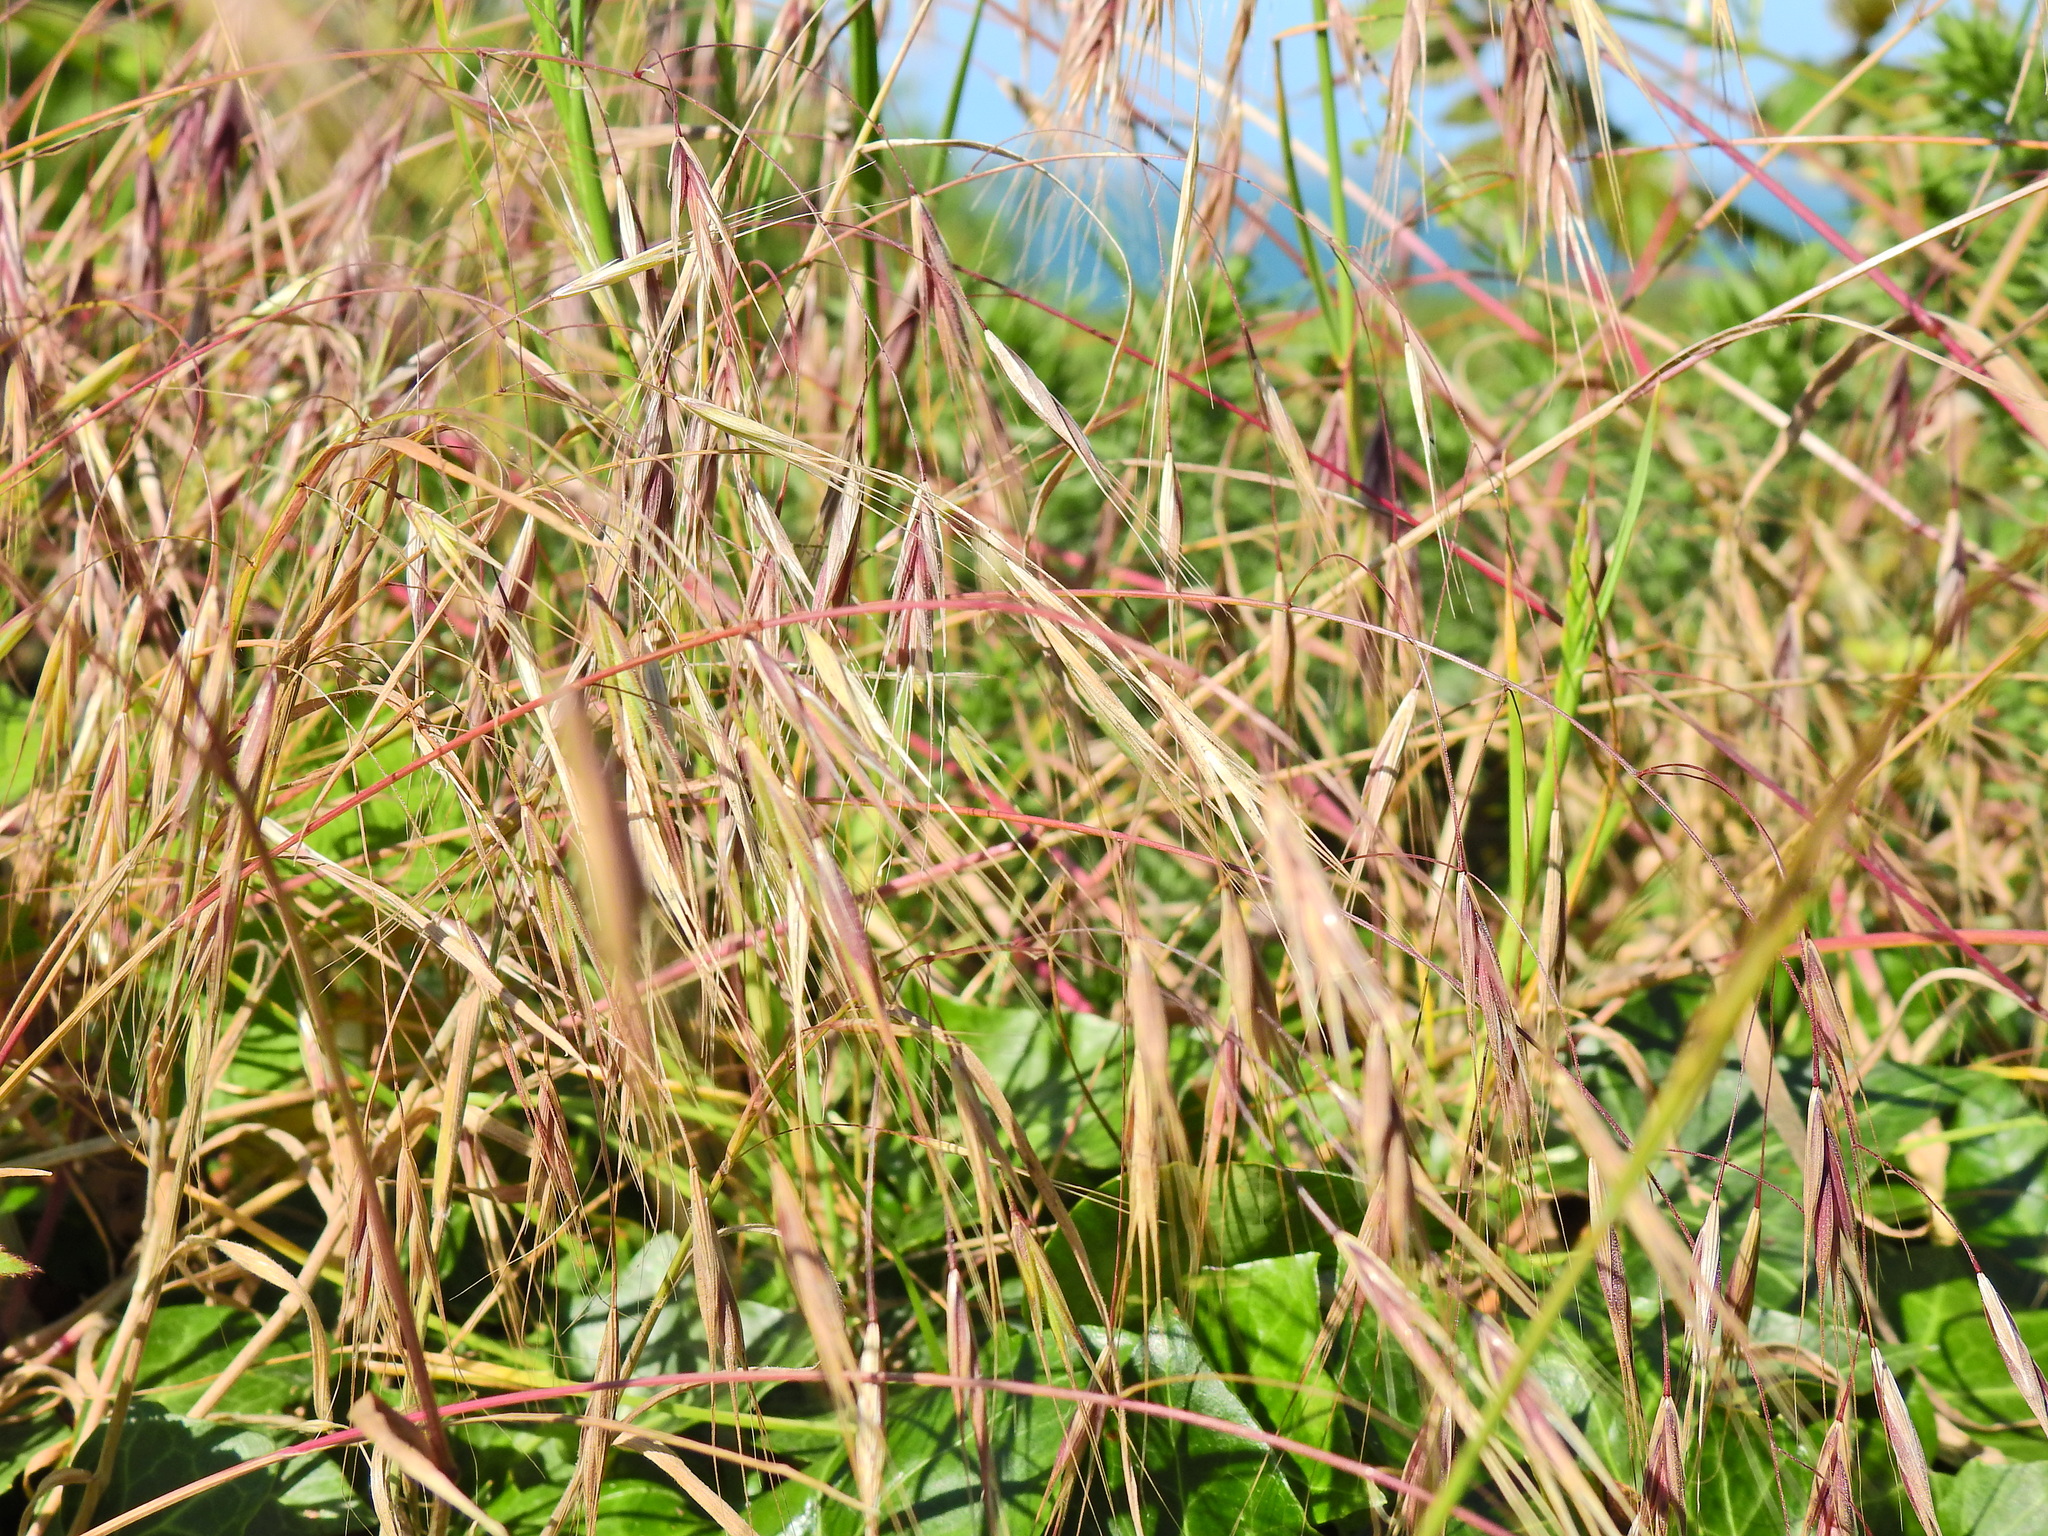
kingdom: Plantae
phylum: Tracheophyta
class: Liliopsida
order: Poales
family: Poaceae
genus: Bromus
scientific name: Bromus sterilis
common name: Poverty brome
